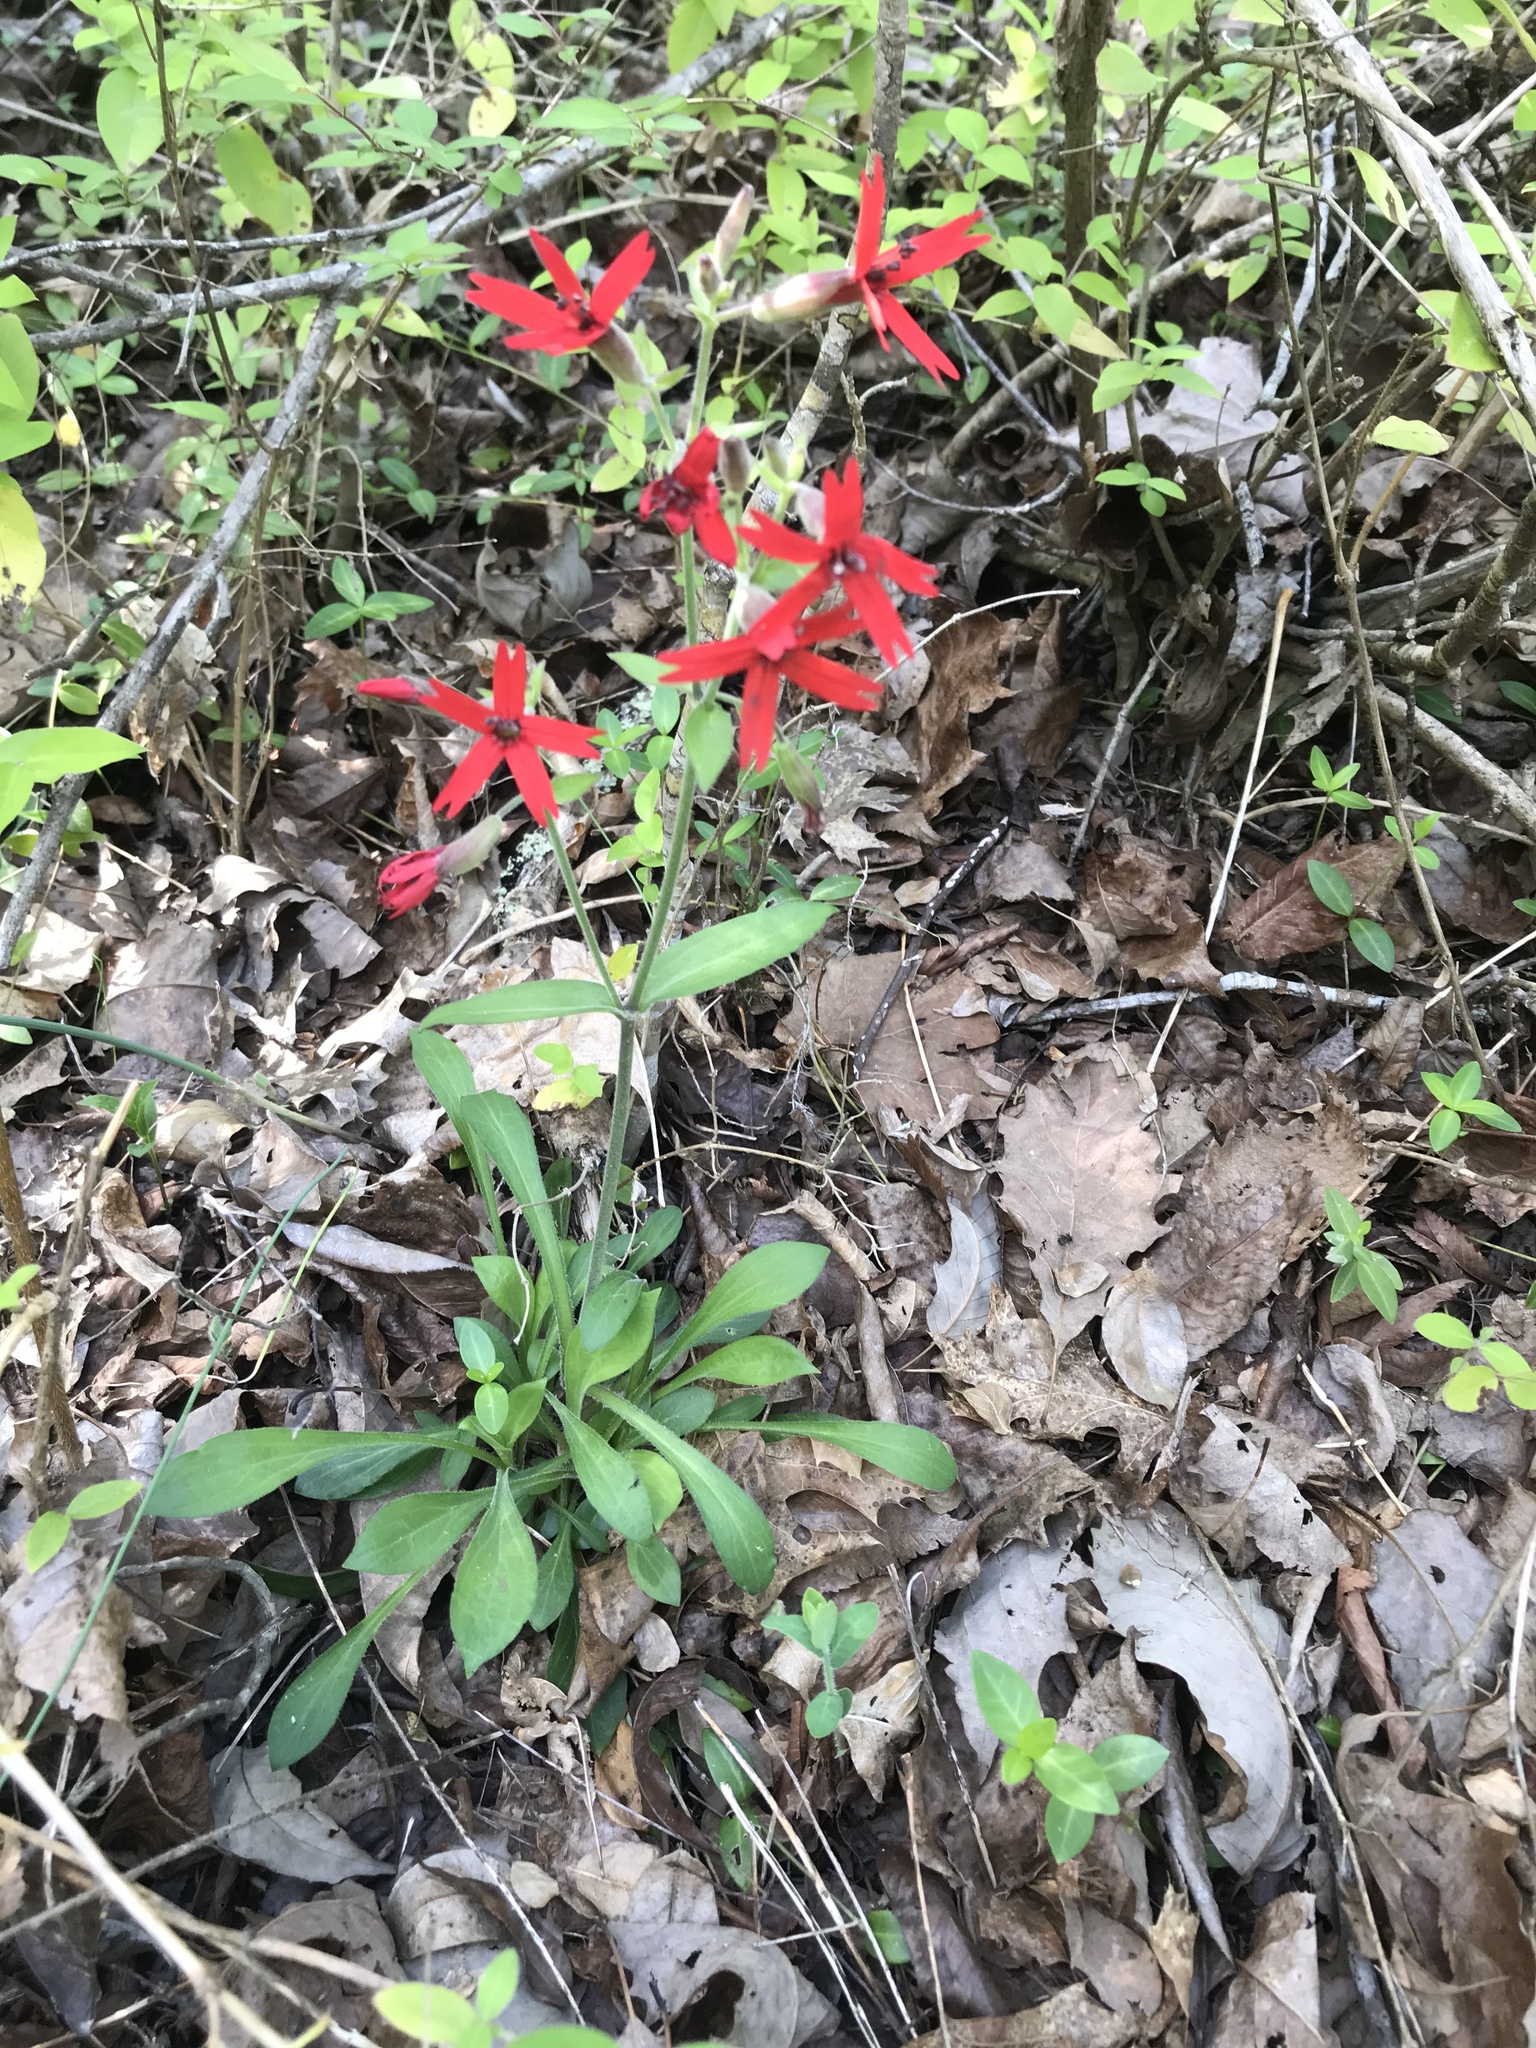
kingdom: Plantae
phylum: Tracheophyta
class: Magnoliopsida
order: Caryophyllales
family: Caryophyllaceae
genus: Silene
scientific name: Silene virginica
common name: Fire-pink
